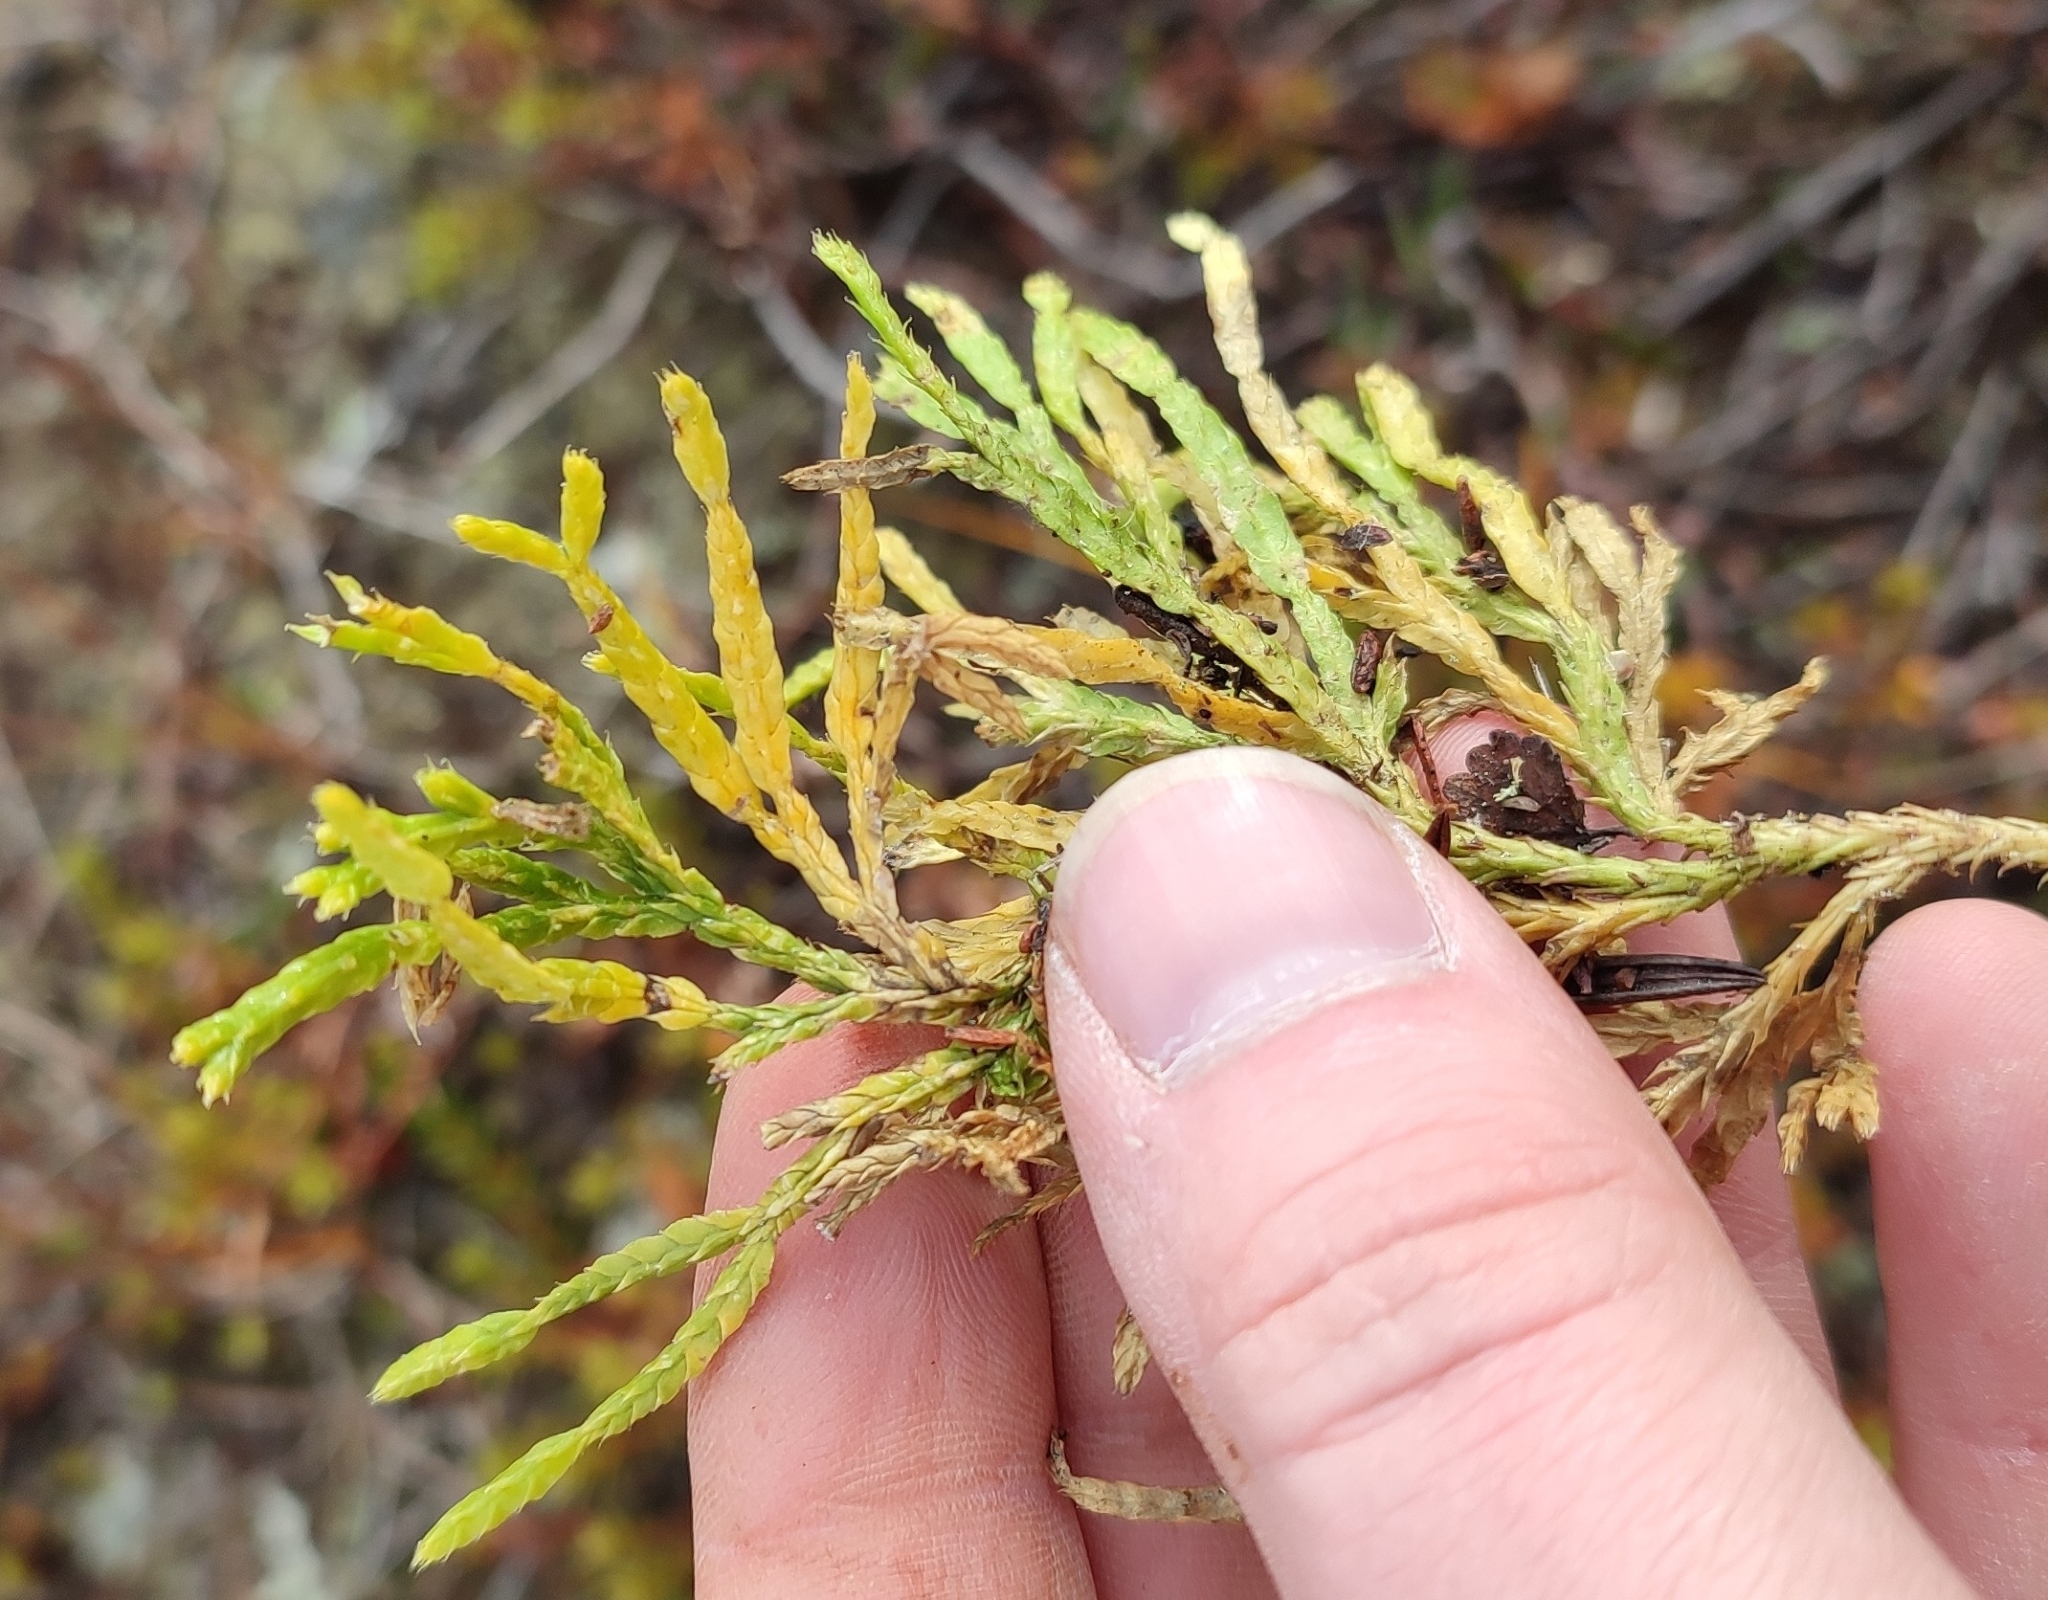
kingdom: Plantae
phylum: Tracheophyta
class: Lycopodiopsida
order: Lycopodiales
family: Lycopodiaceae
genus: Diphasiastrum
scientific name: Diphasiastrum complanatum
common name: Northern running-pine
